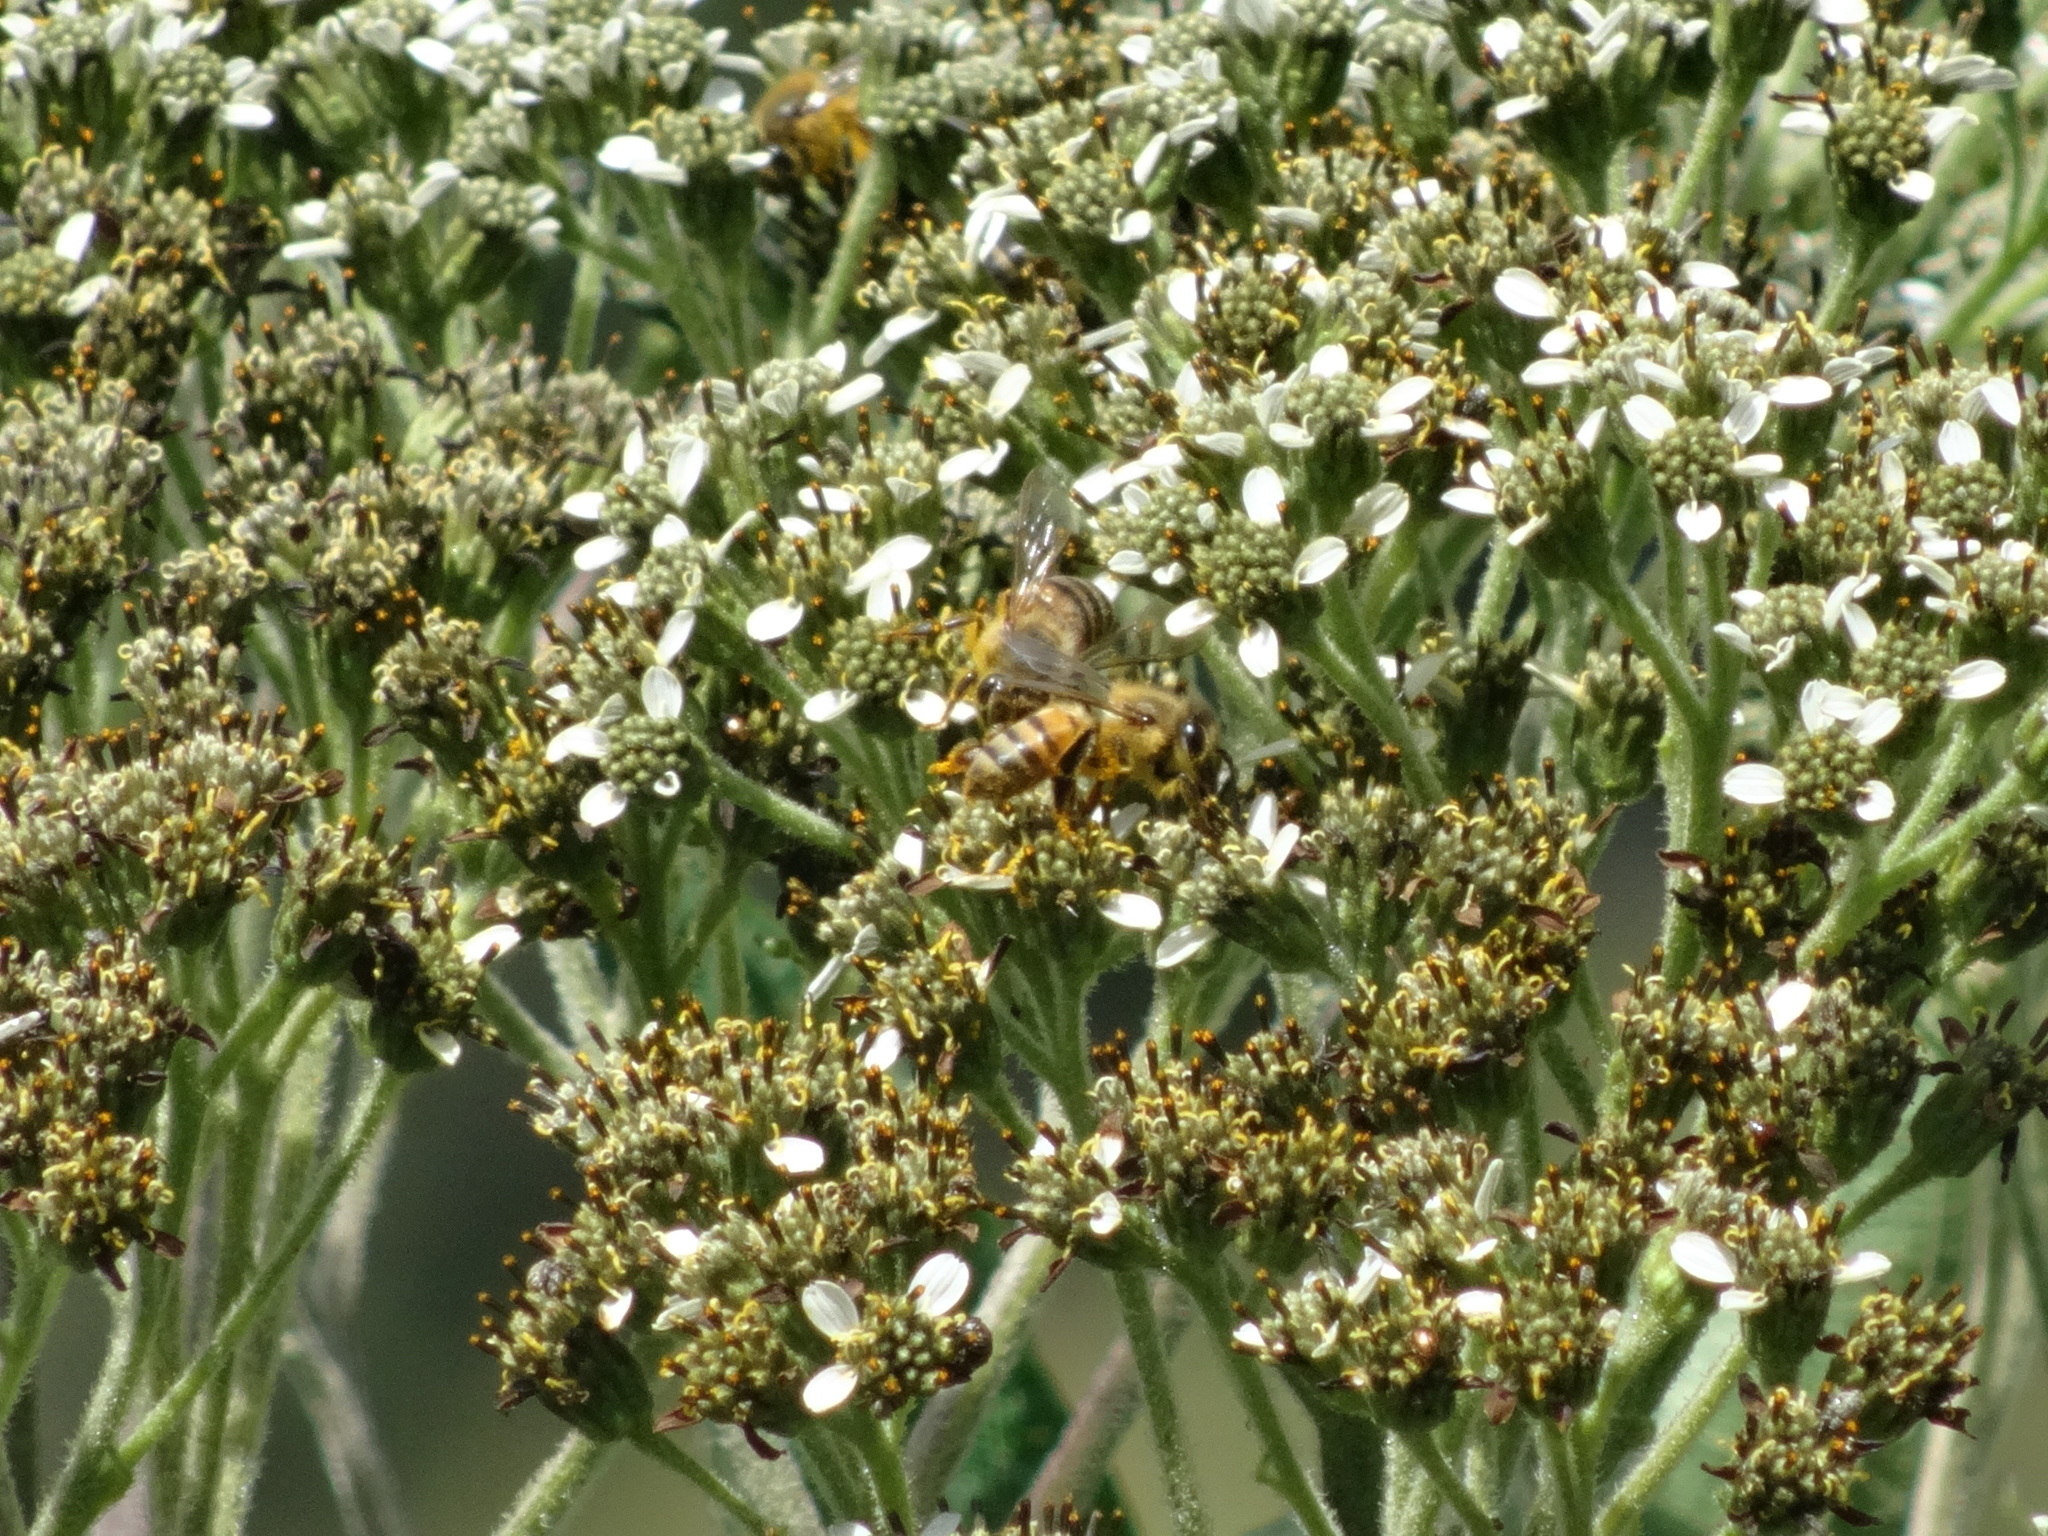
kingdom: Animalia
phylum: Arthropoda
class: Insecta
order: Hymenoptera
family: Apidae
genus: Apis
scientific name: Apis mellifera
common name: Honey bee
